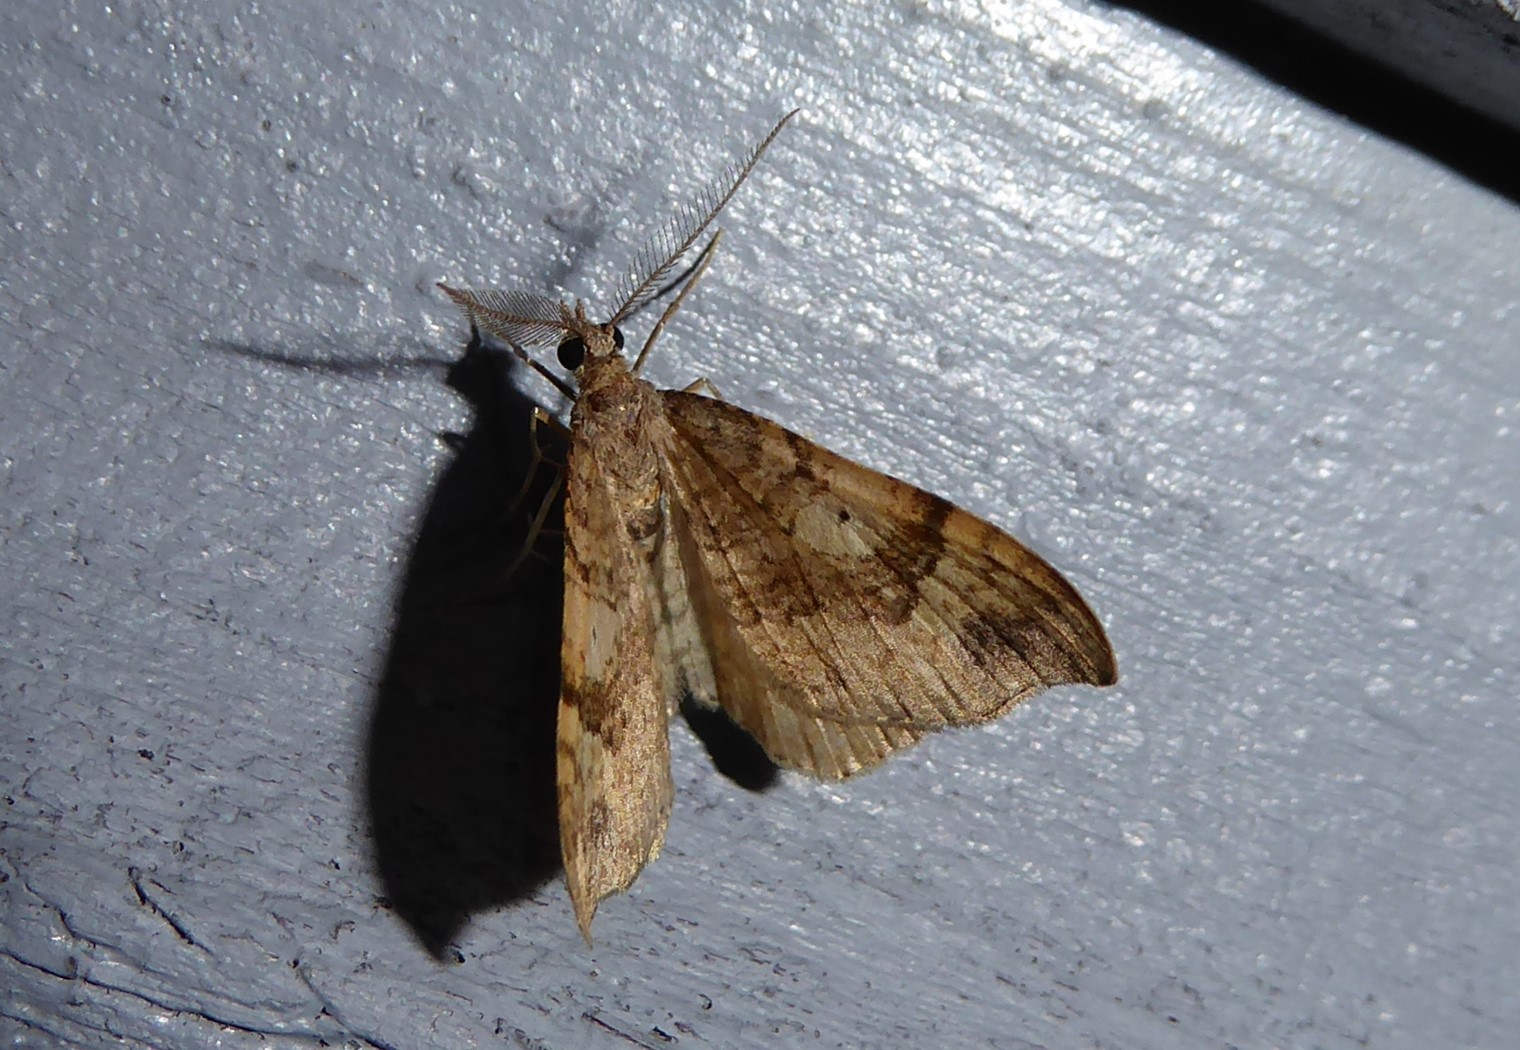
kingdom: Animalia
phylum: Arthropoda
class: Insecta
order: Lepidoptera
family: Geometridae
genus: Homodotis
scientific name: Homodotis megaspilata
